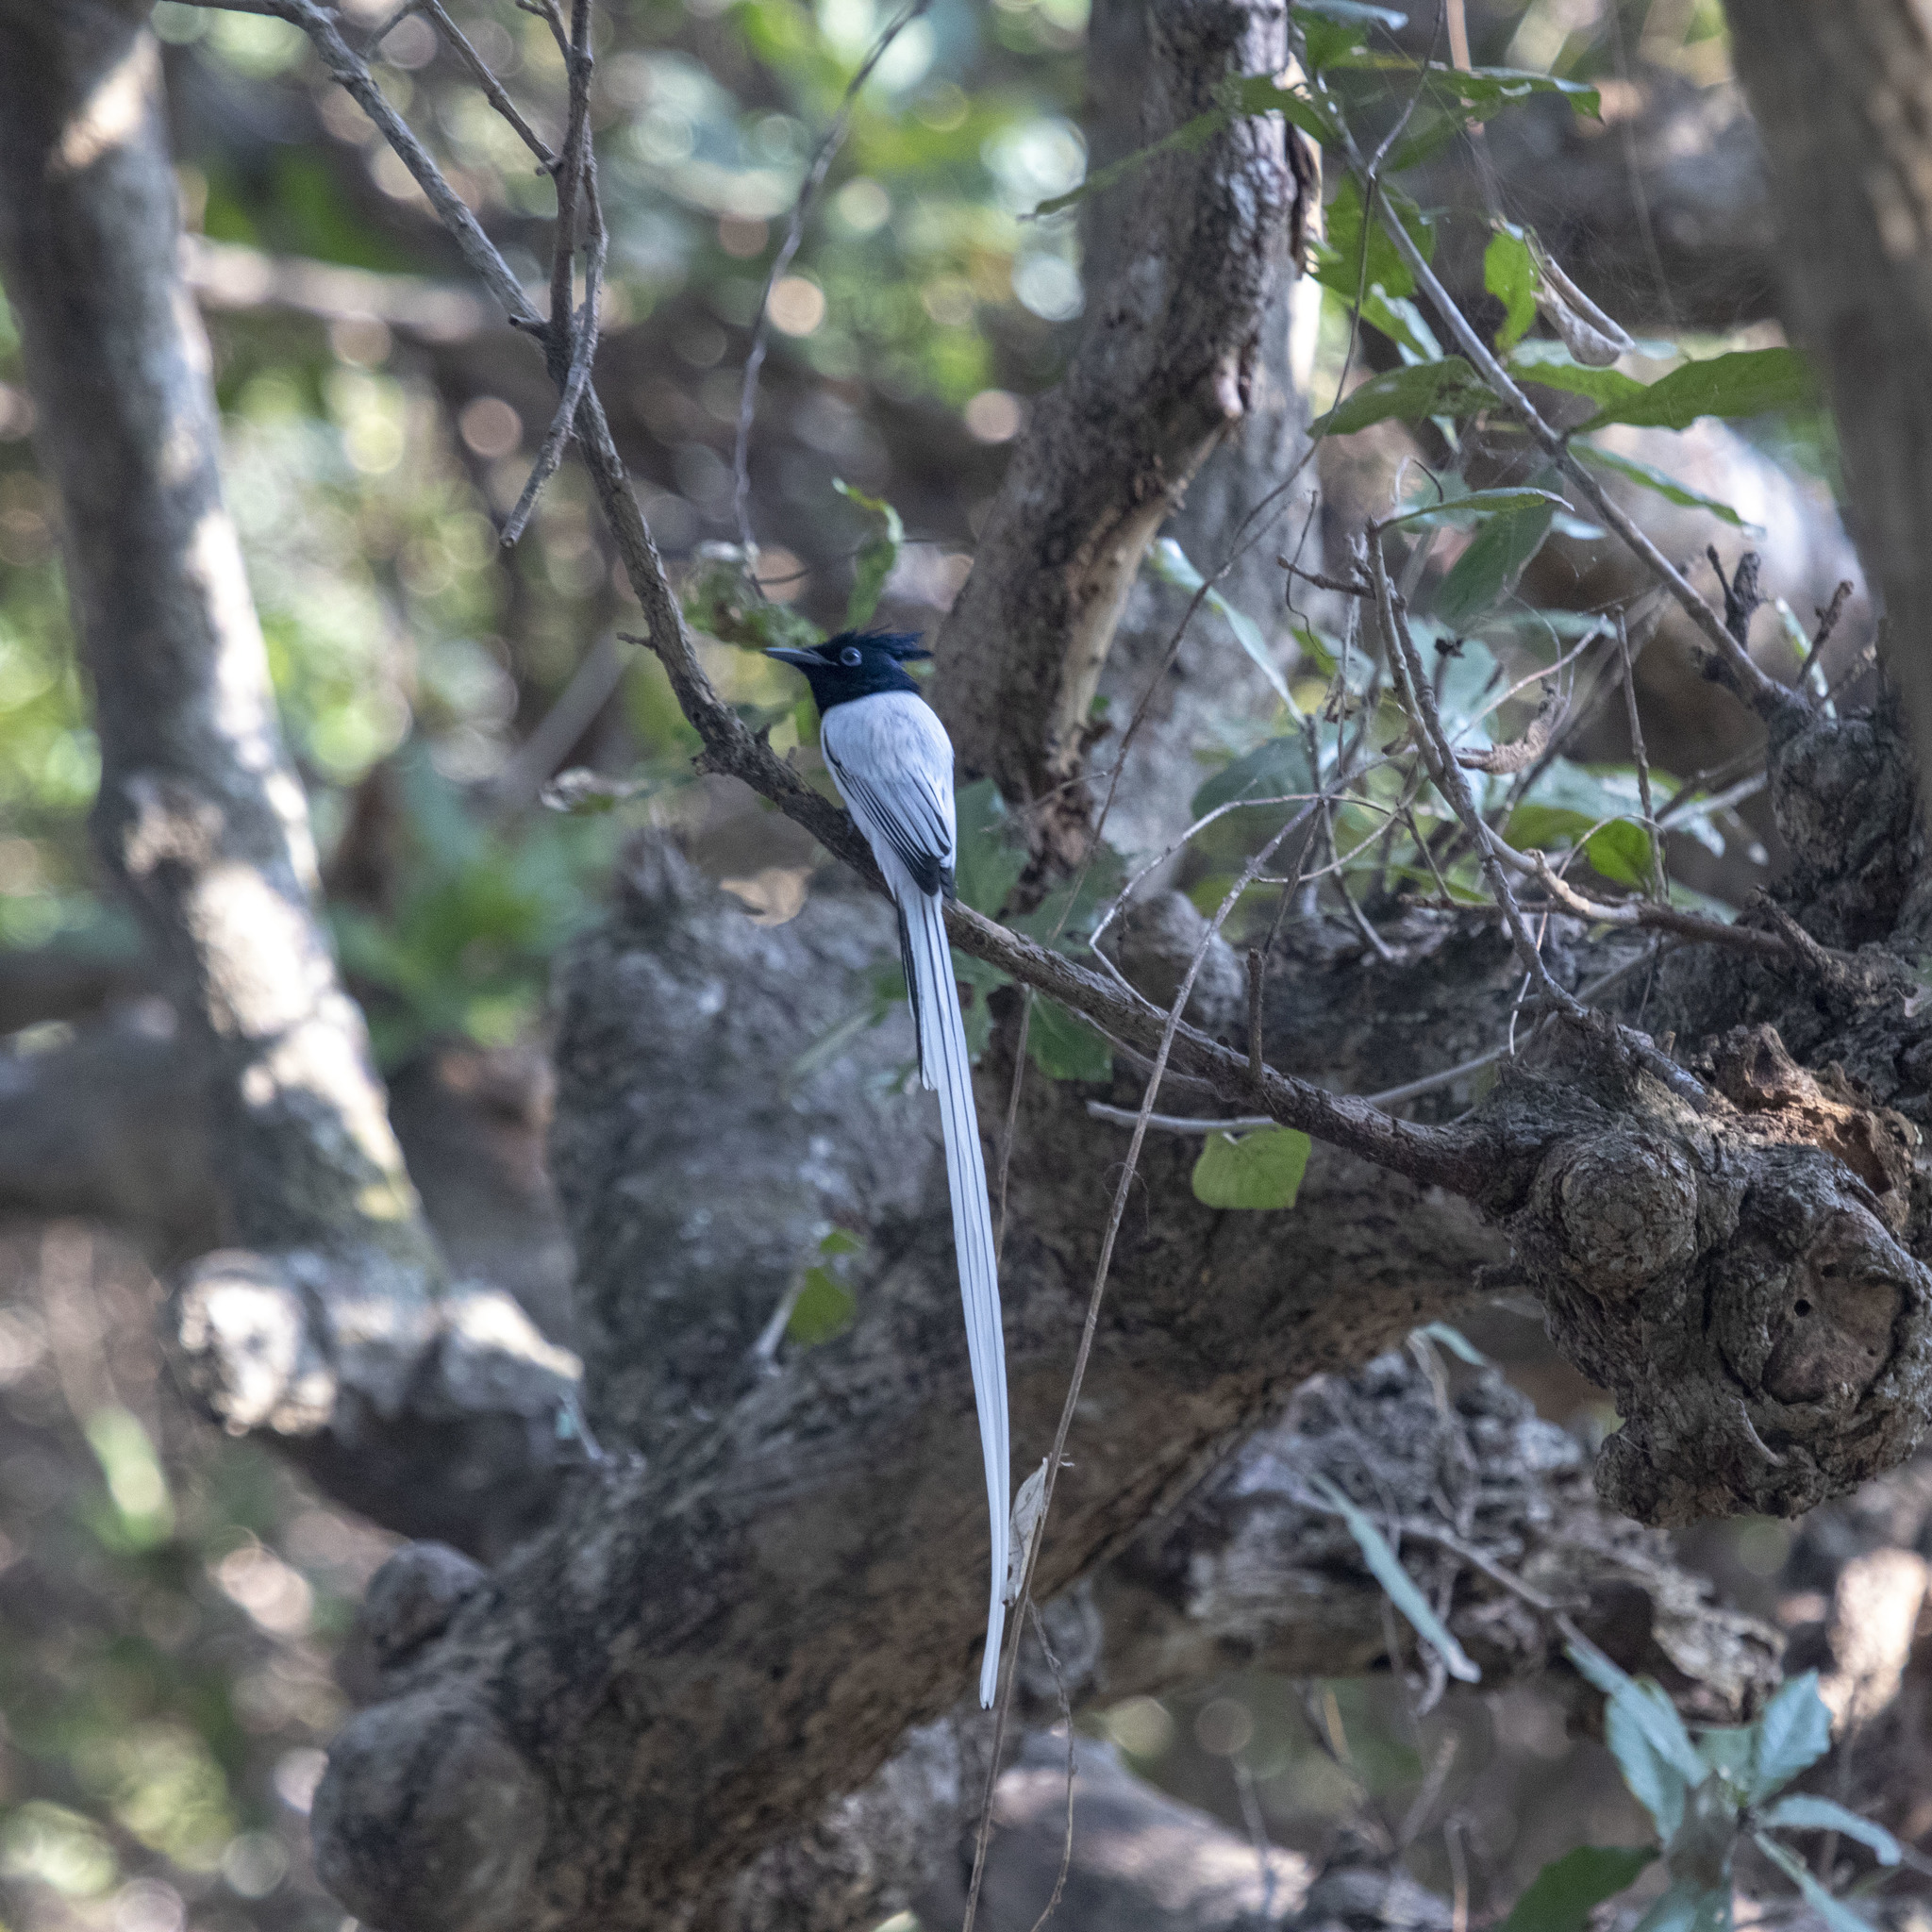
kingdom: Animalia
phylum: Chordata
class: Aves
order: Passeriformes
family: Monarchidae
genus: Terpsiphone
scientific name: Terpsiphone paradisi
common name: Indian paradise flycatcher
